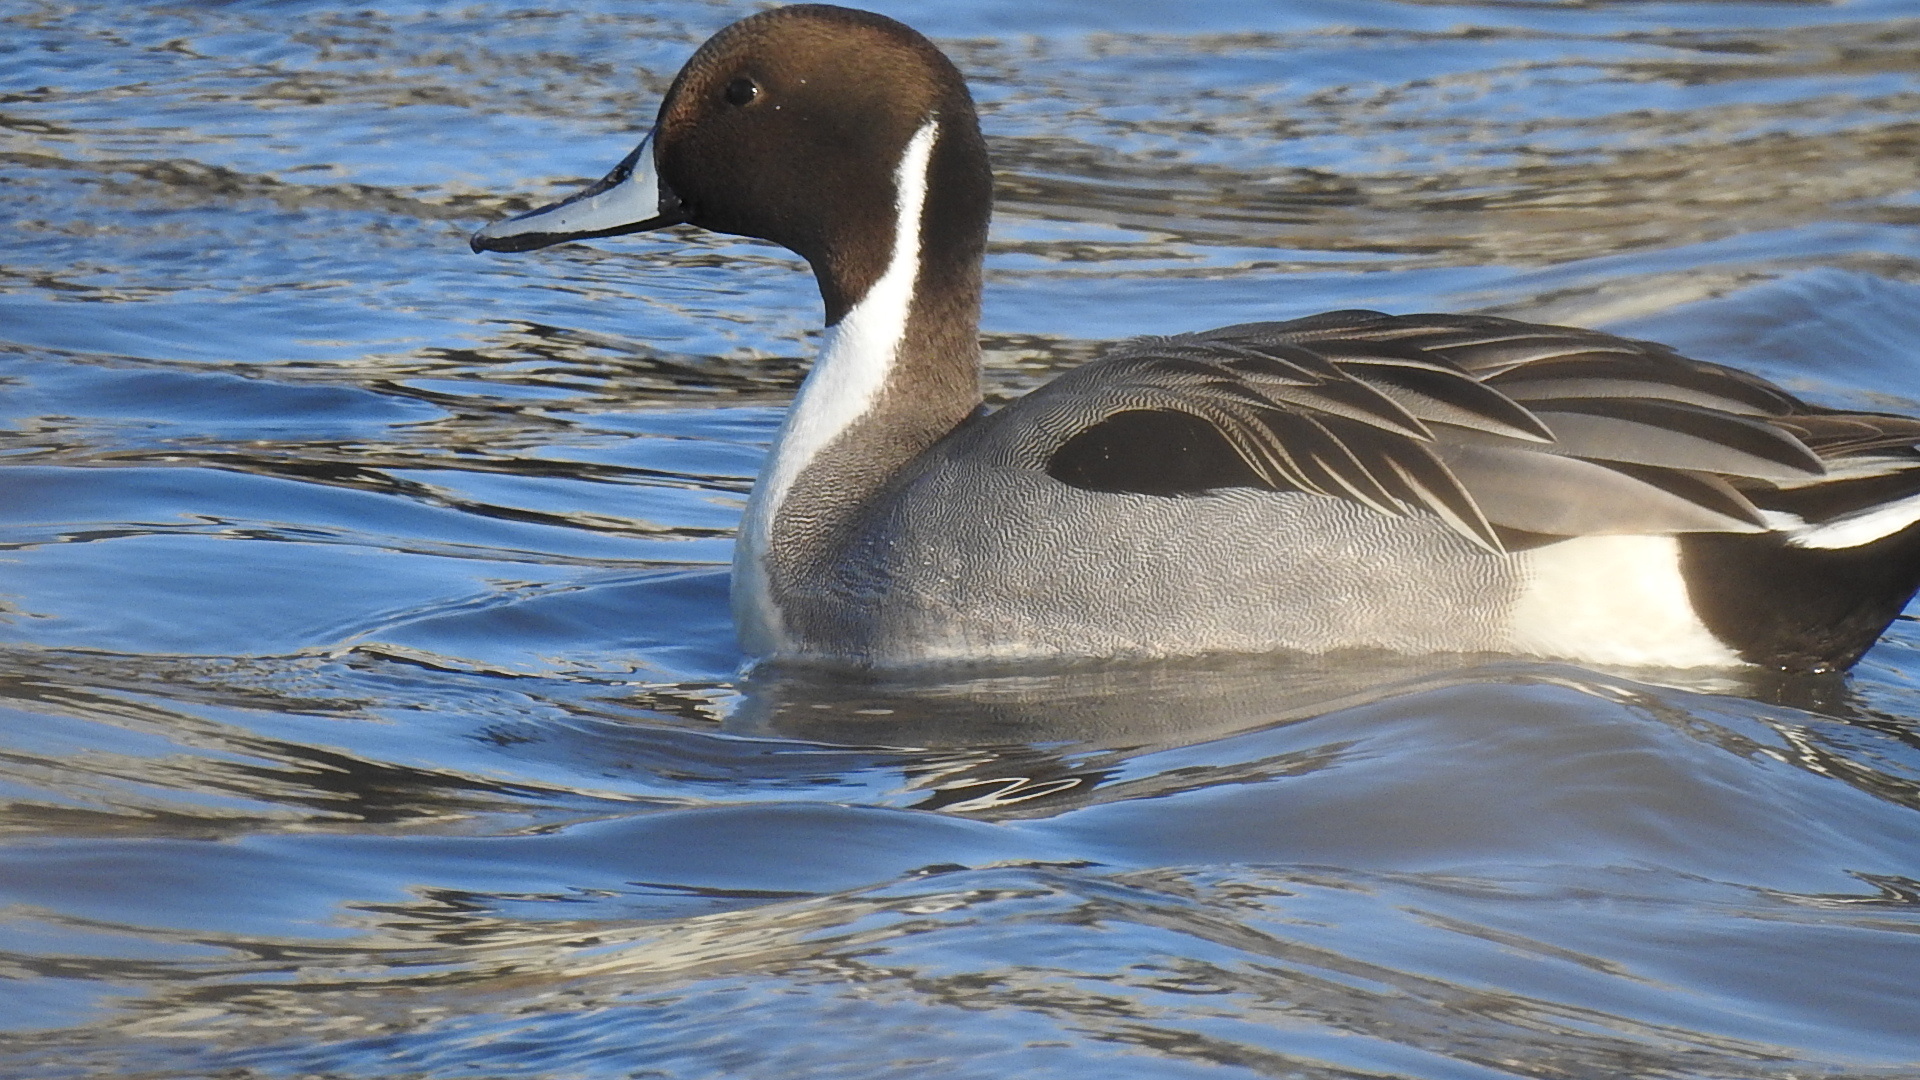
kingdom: Animalia
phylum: Chordata
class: Aves
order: Anseriformes
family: Anatidae
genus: Anas
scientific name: Anas acuta
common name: Northern pintail
